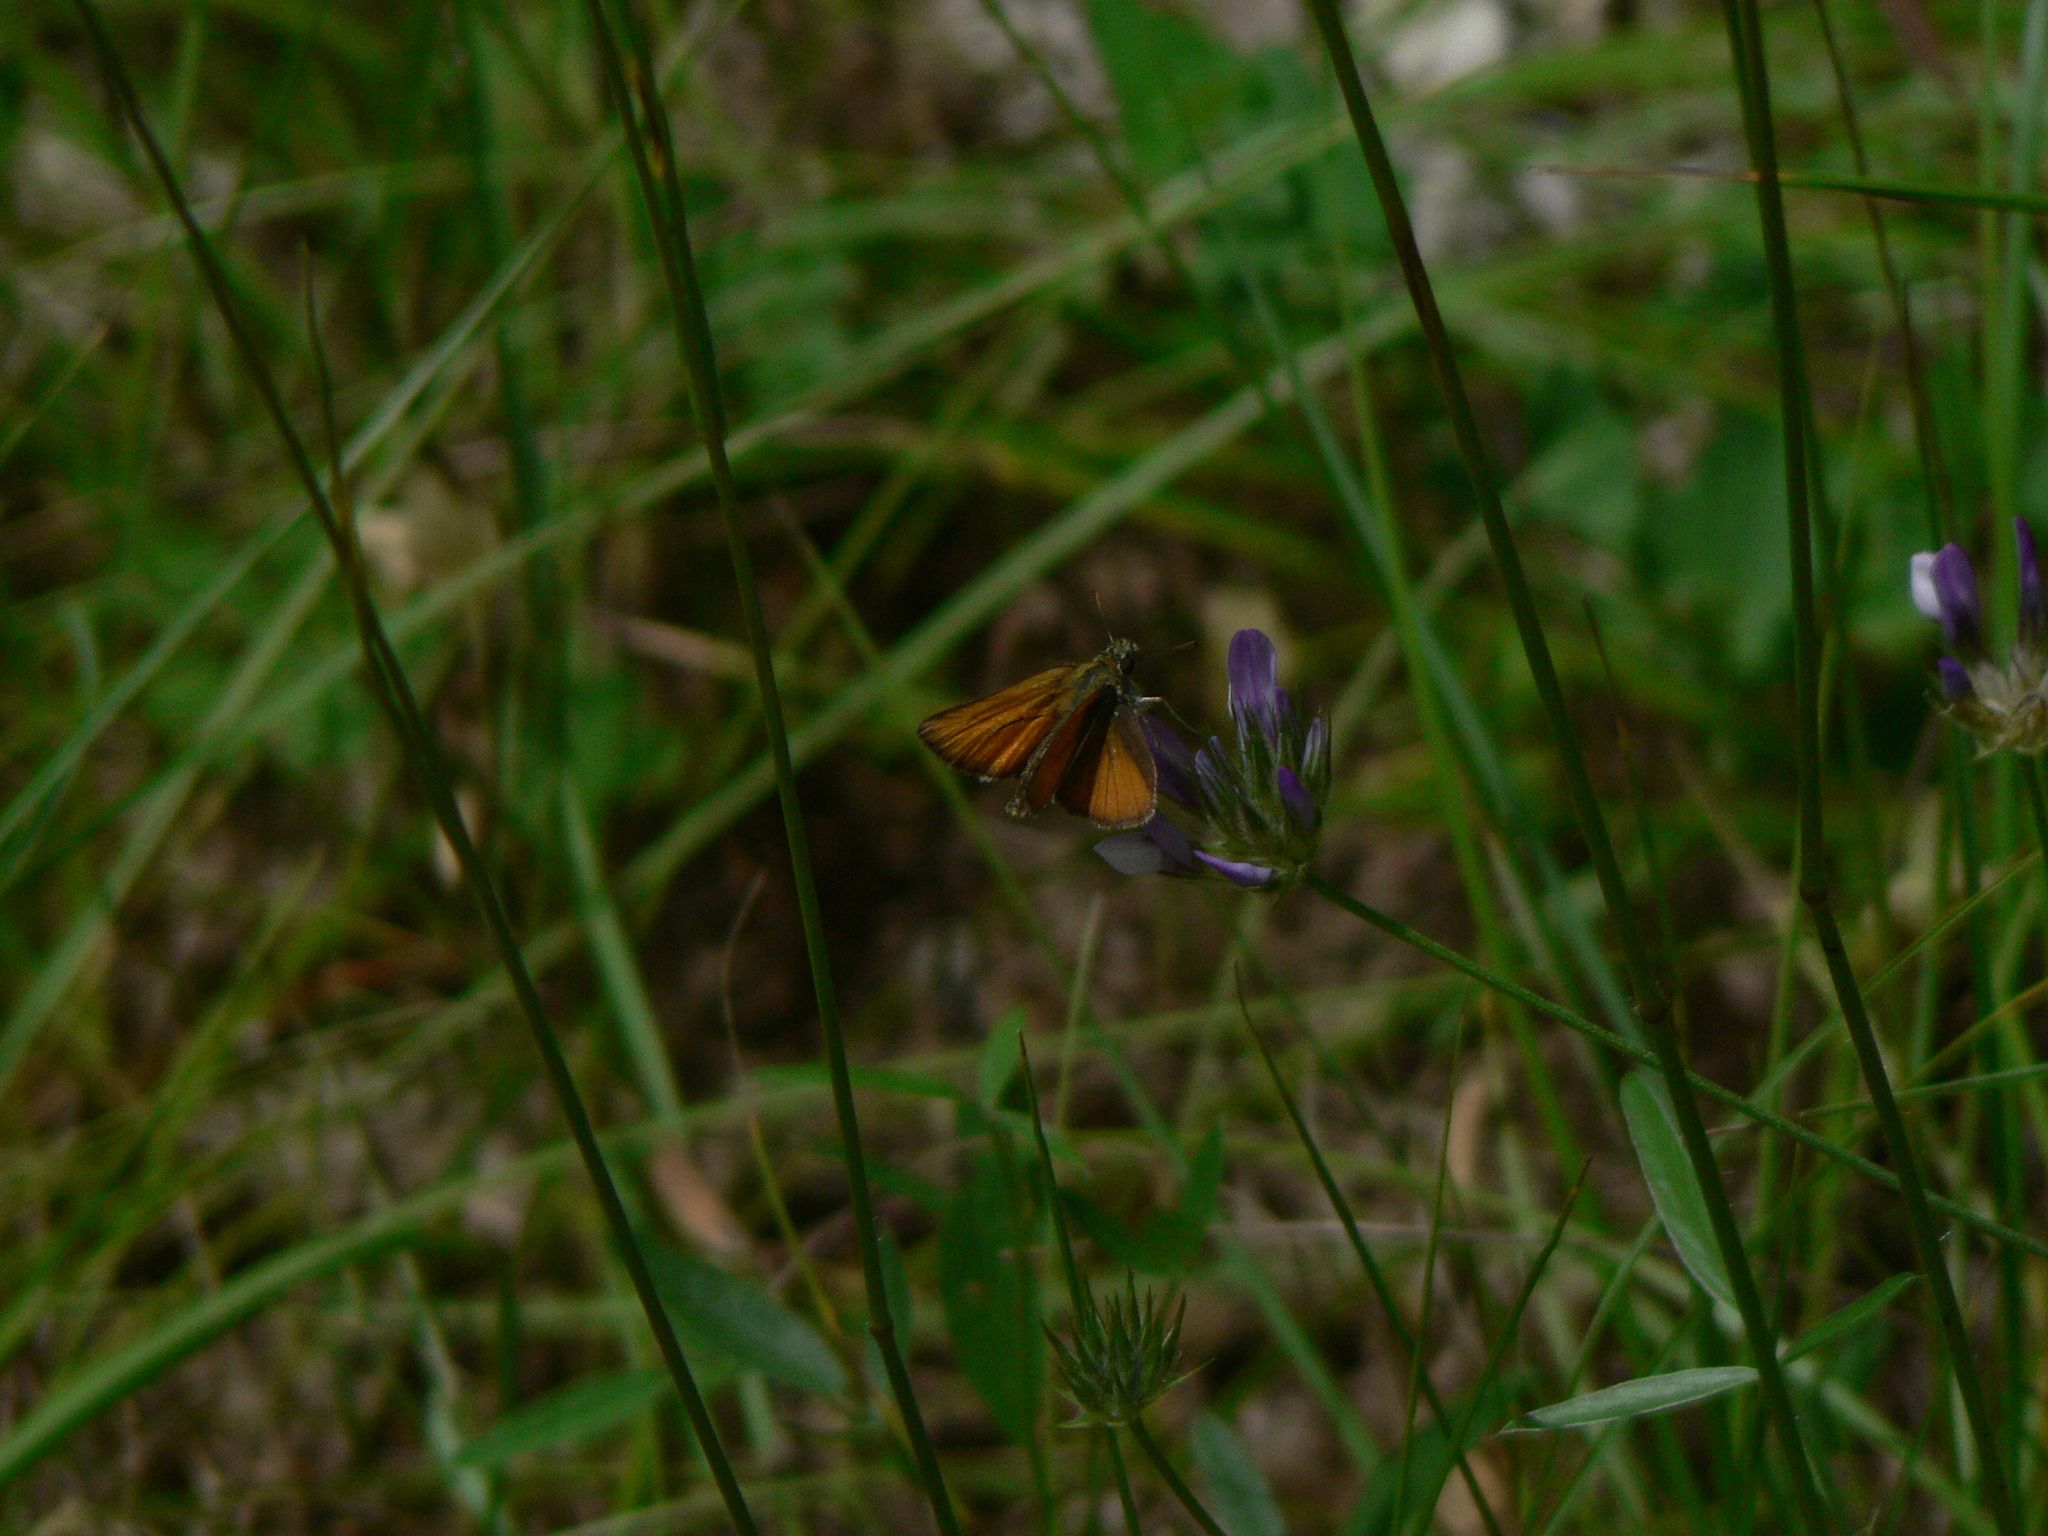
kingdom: Animalia
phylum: Arthropoda
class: Insecta
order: Lepidoptera
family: Hesperiidae
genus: Thymelicus
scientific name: Thymelicus sylvestris
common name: Small skipper
